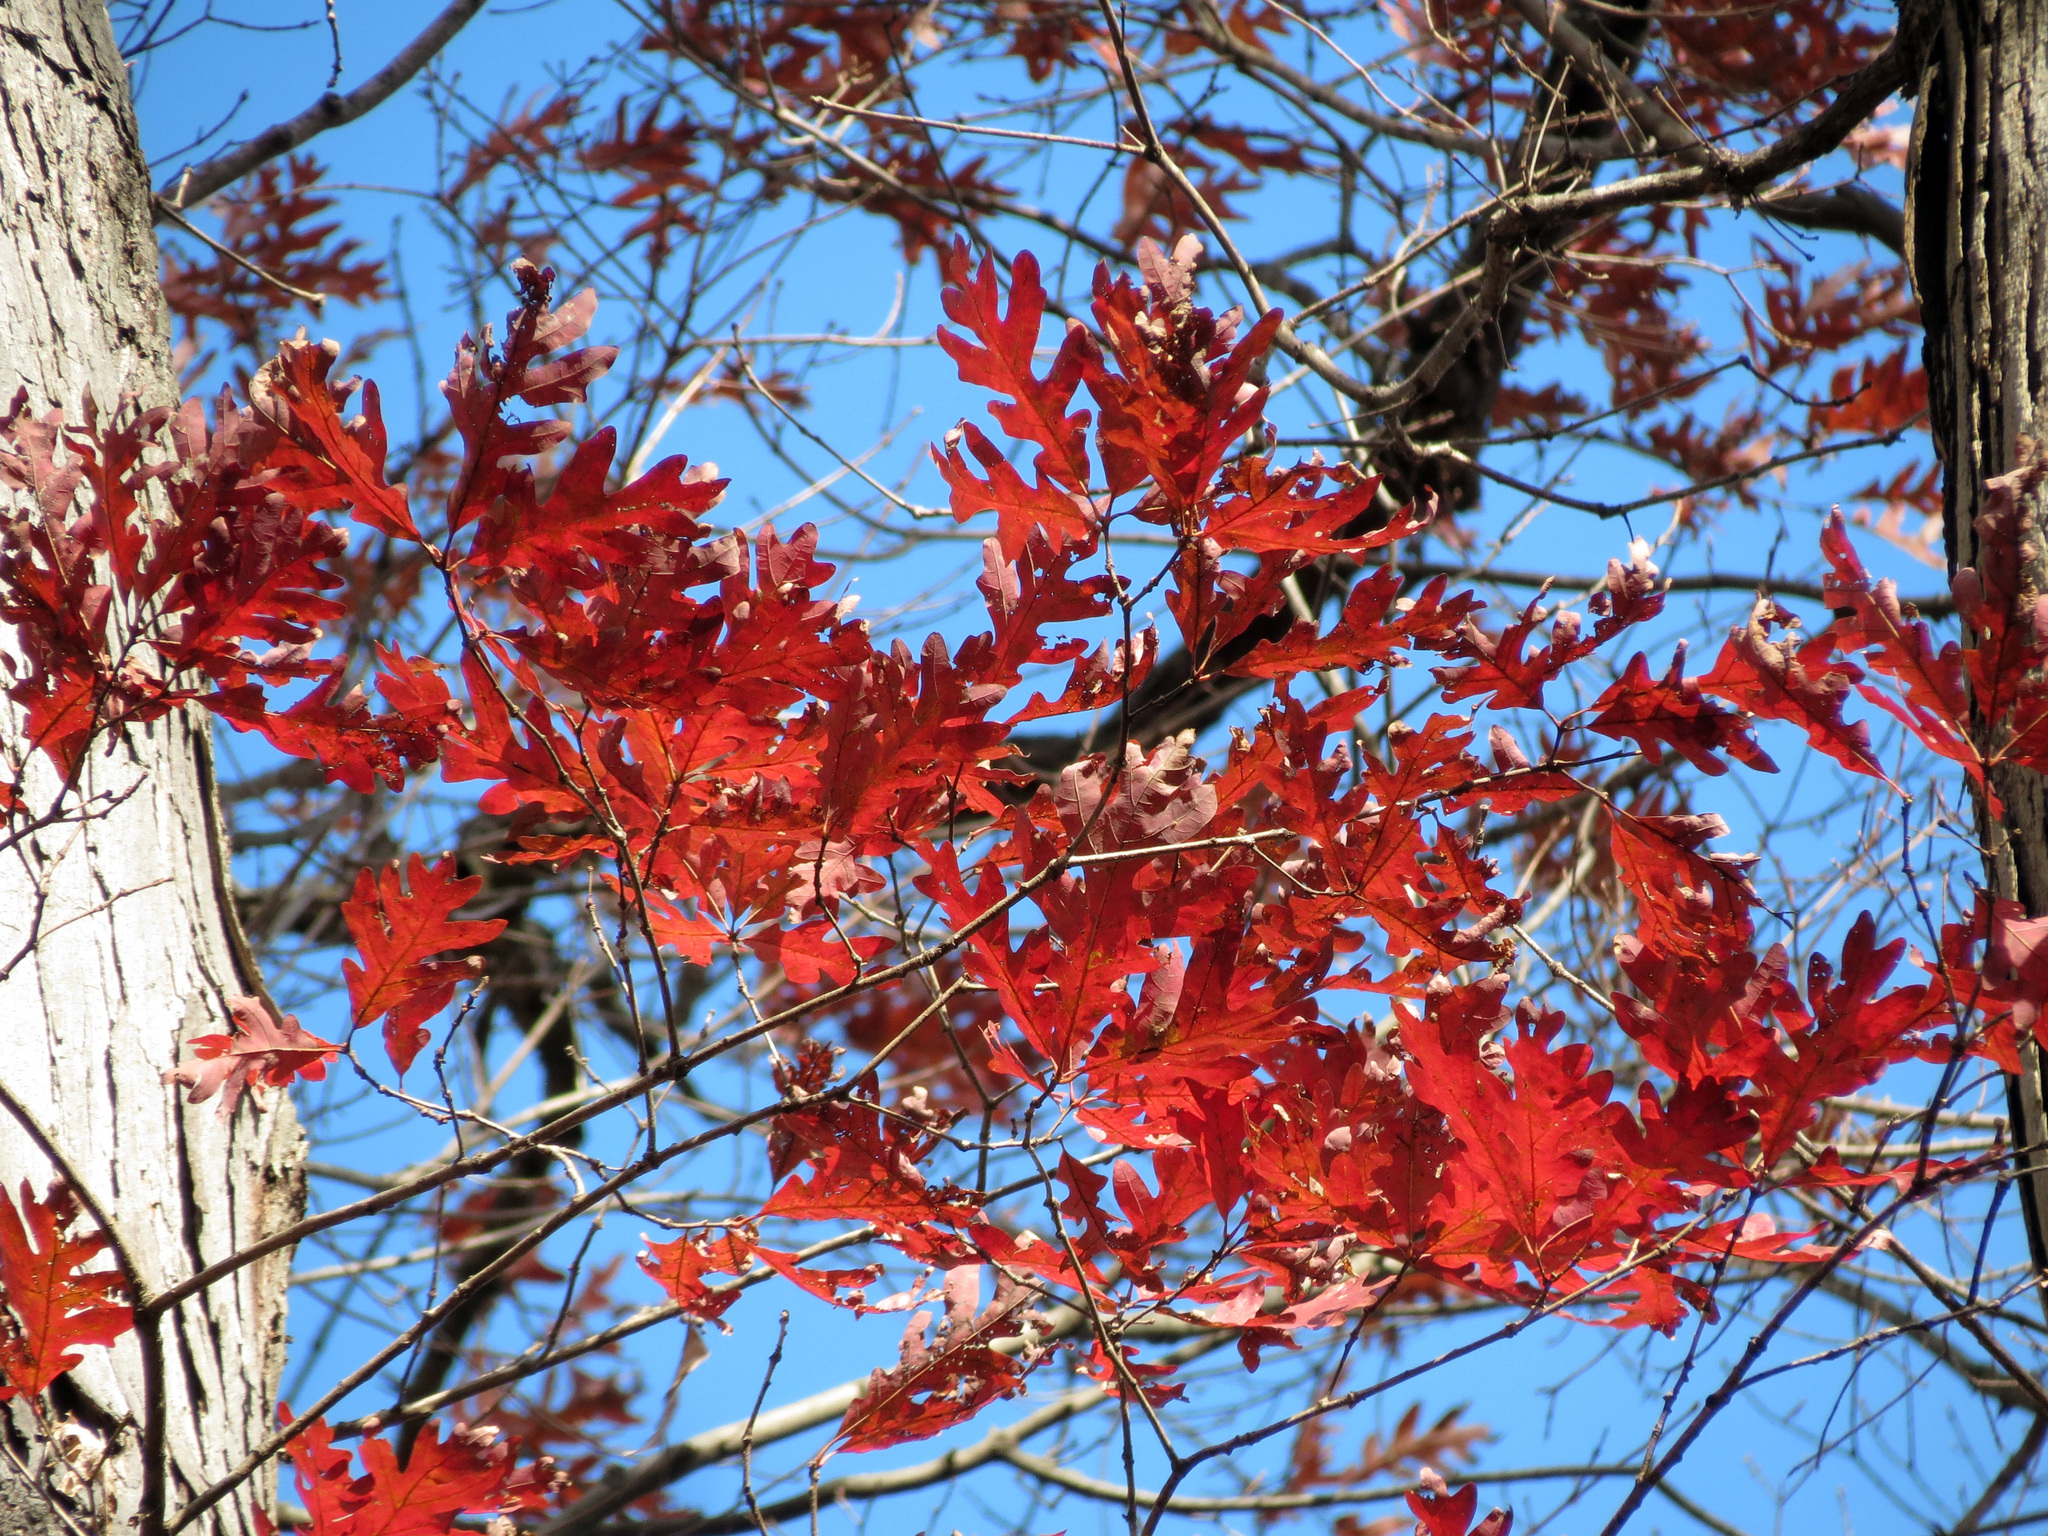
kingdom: Plantae
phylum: Tracheophyta
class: Magnoliopsida
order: Fagales
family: Fagaceae
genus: Quercus
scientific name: Quercus alba
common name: White oak
